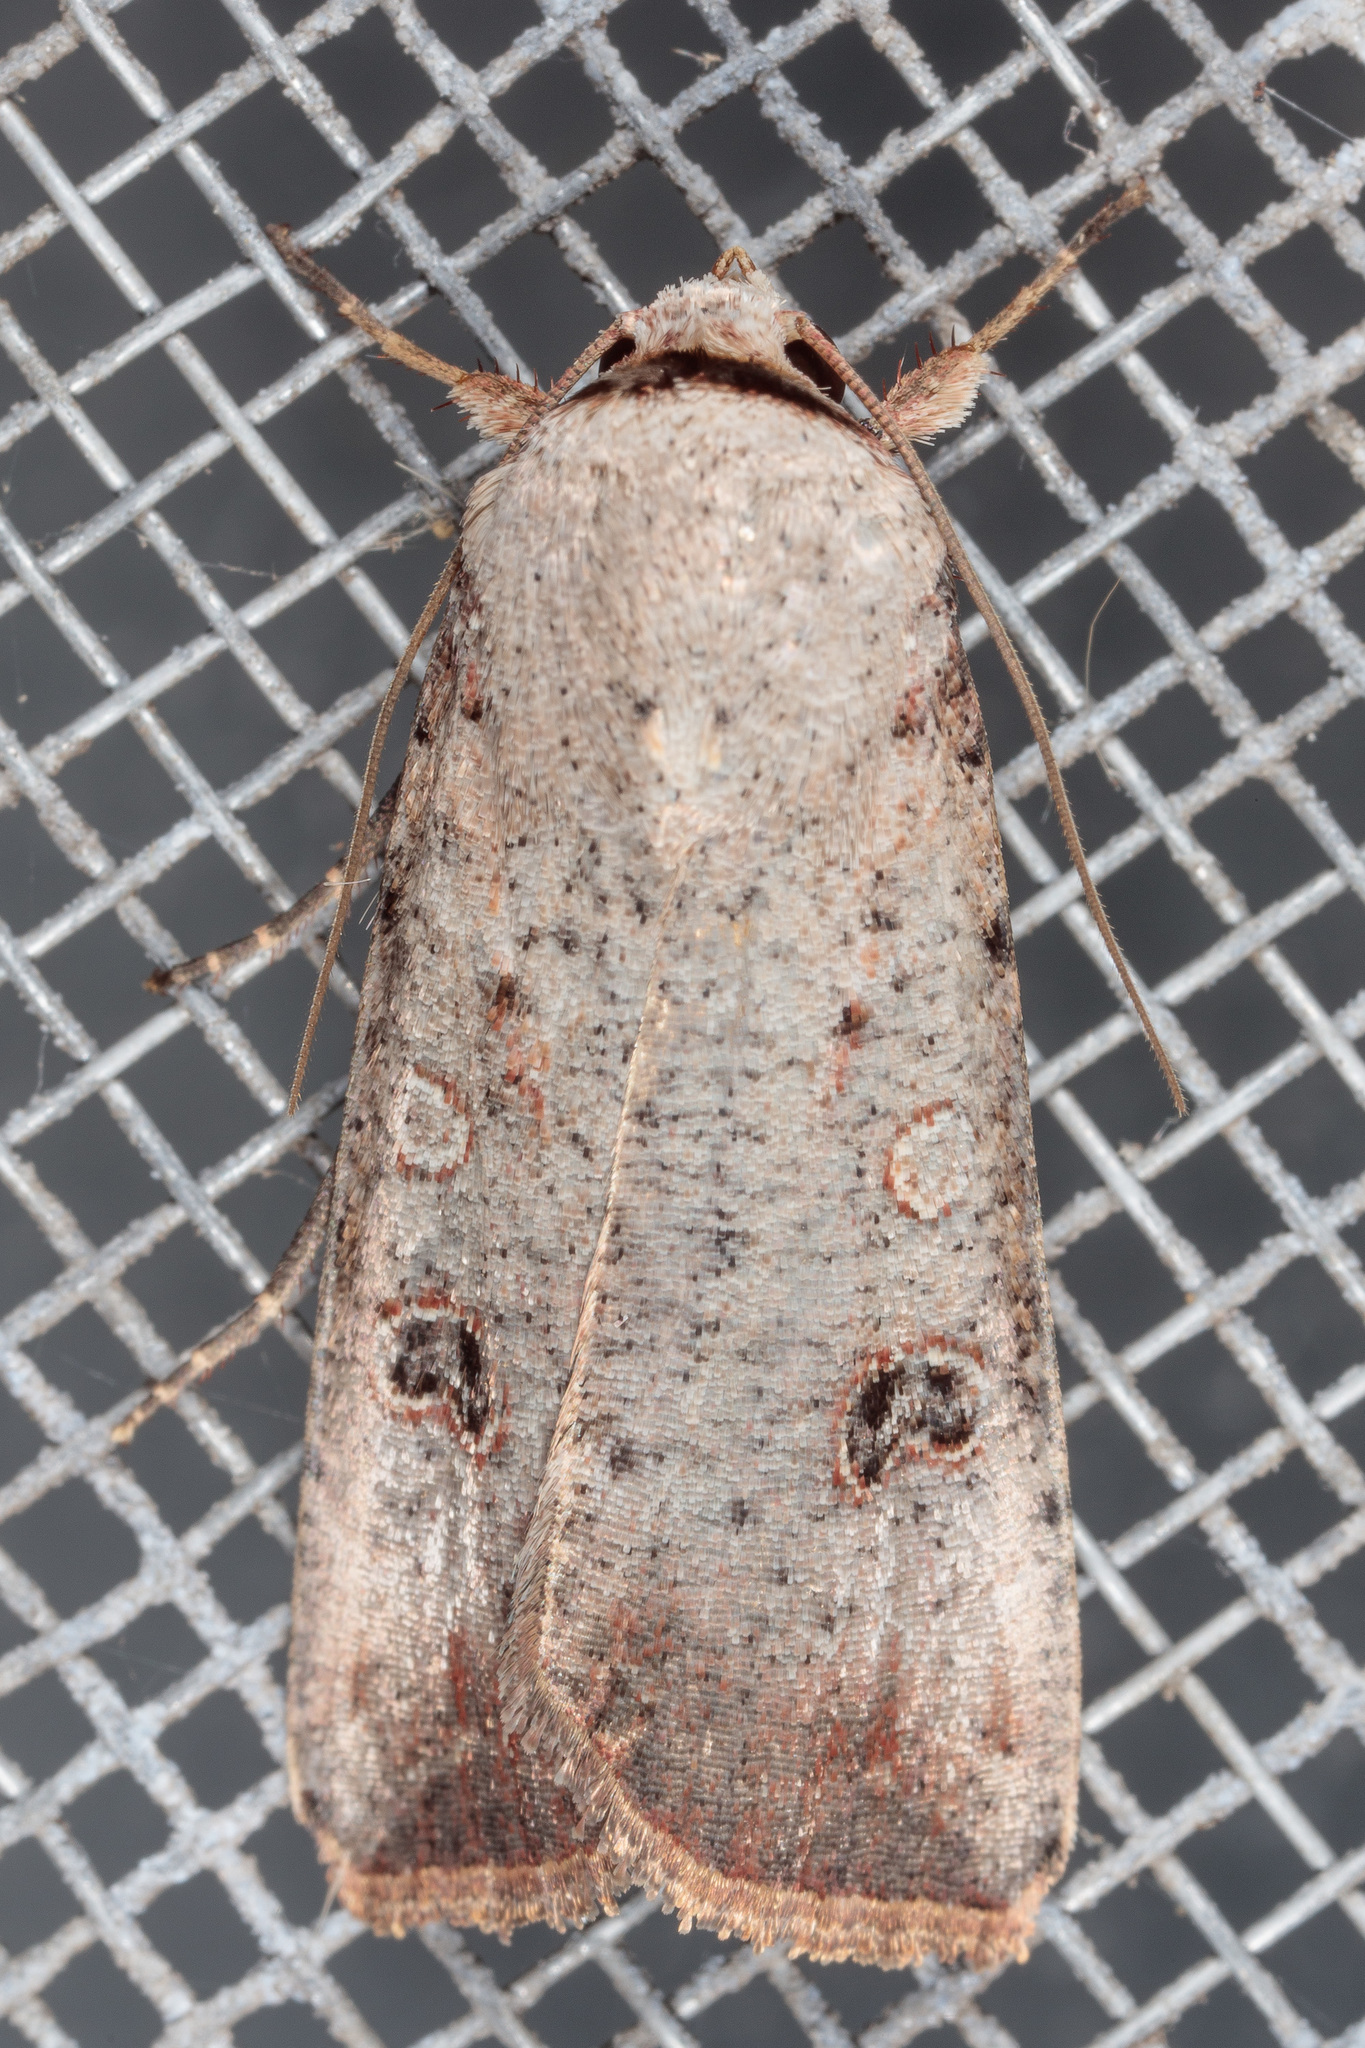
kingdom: Animalia
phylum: Arthropoda
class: Insecta
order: Lepidoptera
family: Noctuidae
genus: Anicla
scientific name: Anicla infecta
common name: Green cutworm
